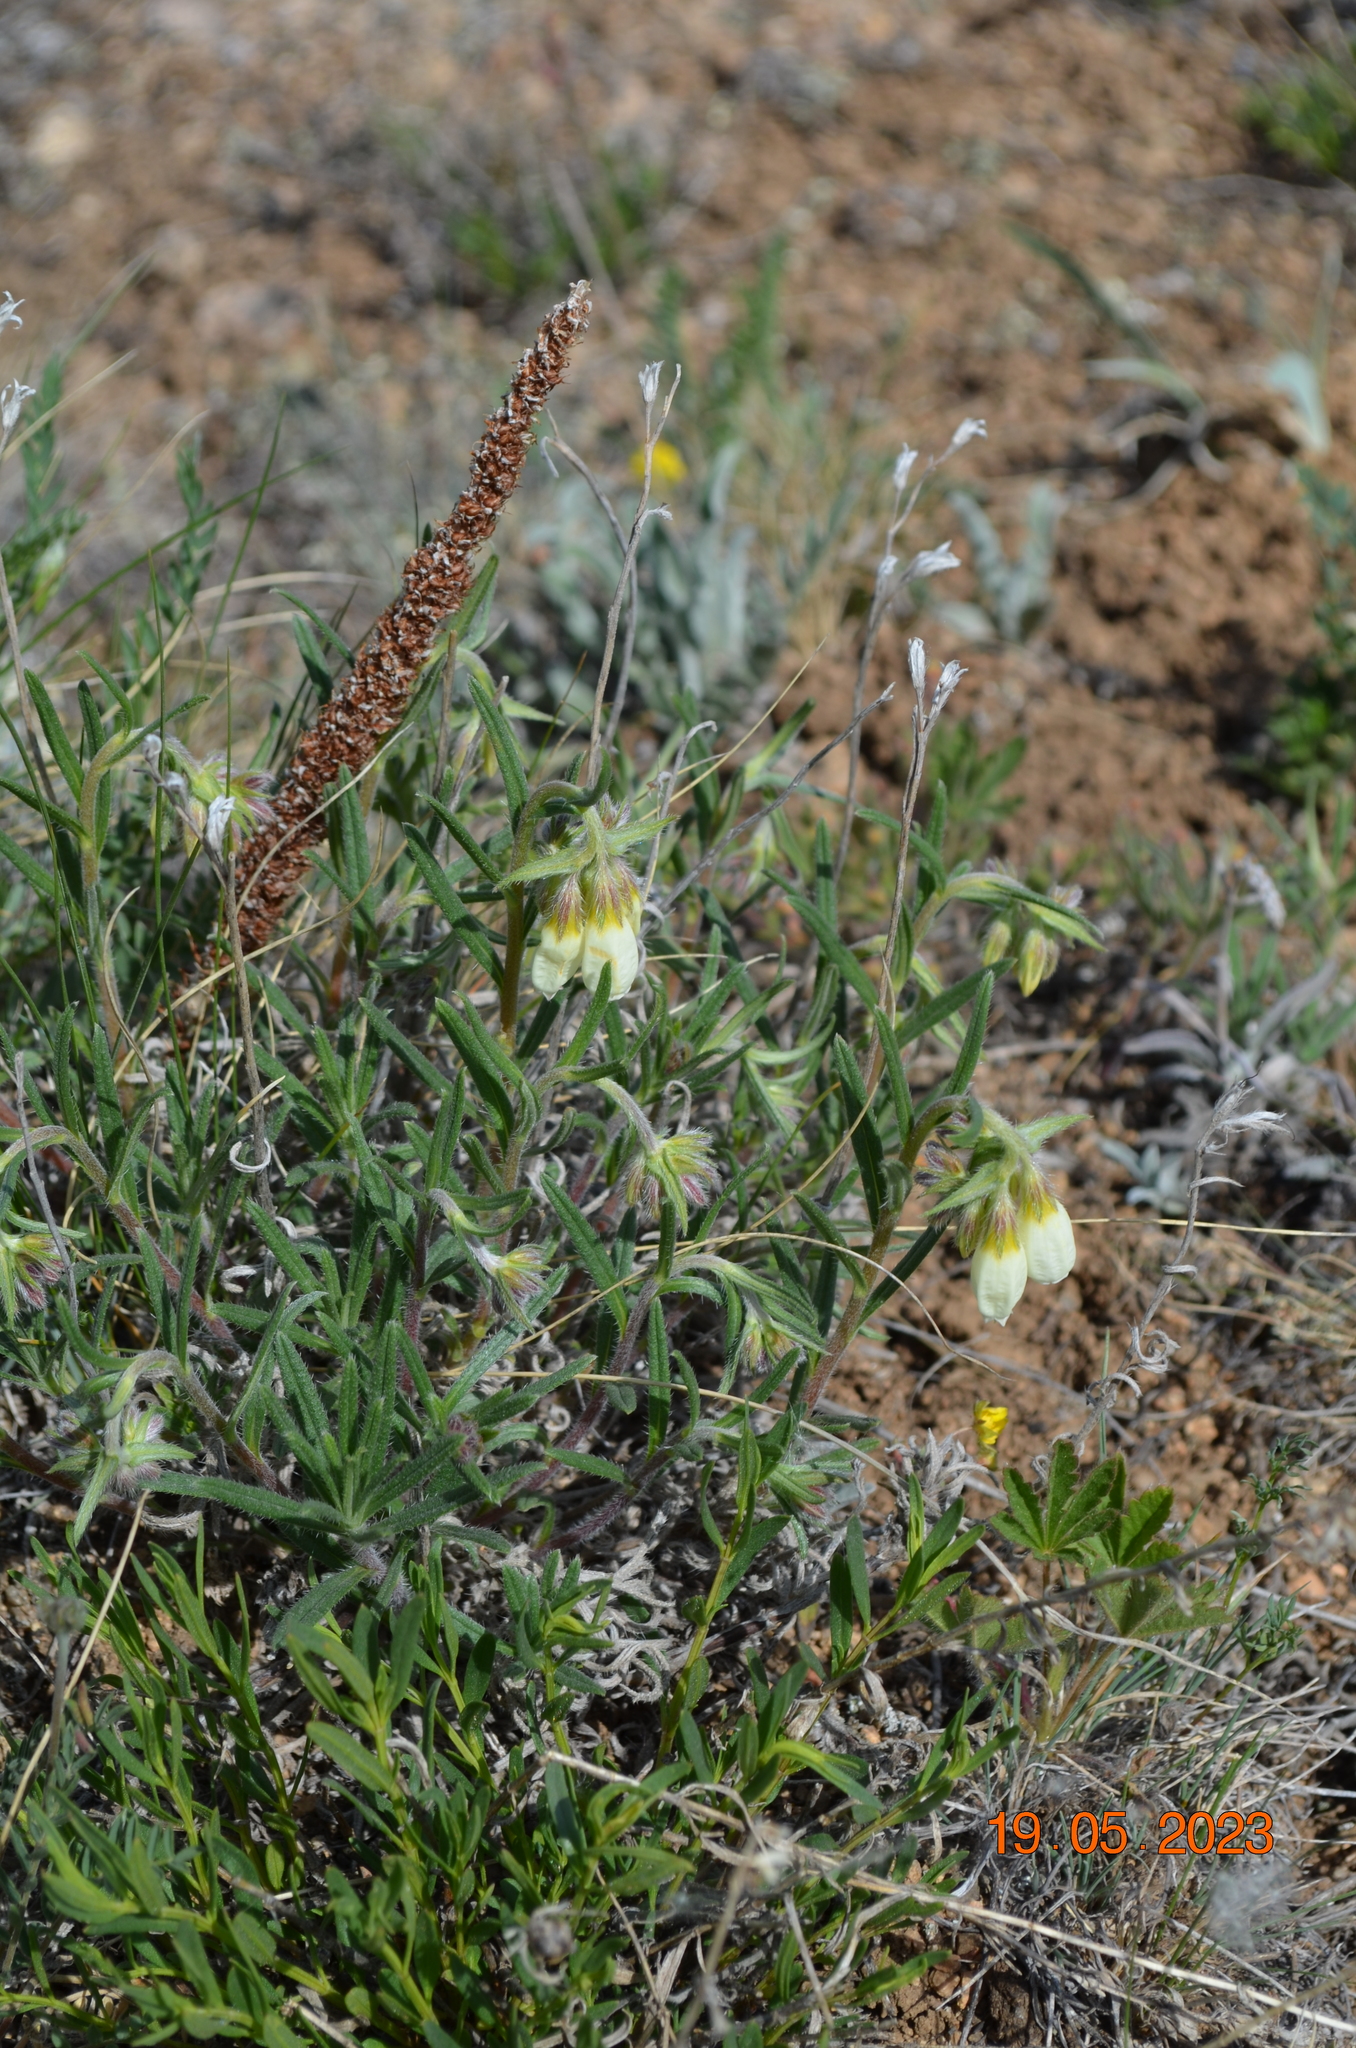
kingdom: Plantae
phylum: Tracheophyta
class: Magnoliopsida
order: Boraginales
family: Boraginaceae
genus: Onosma
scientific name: Onosma simplicissima
